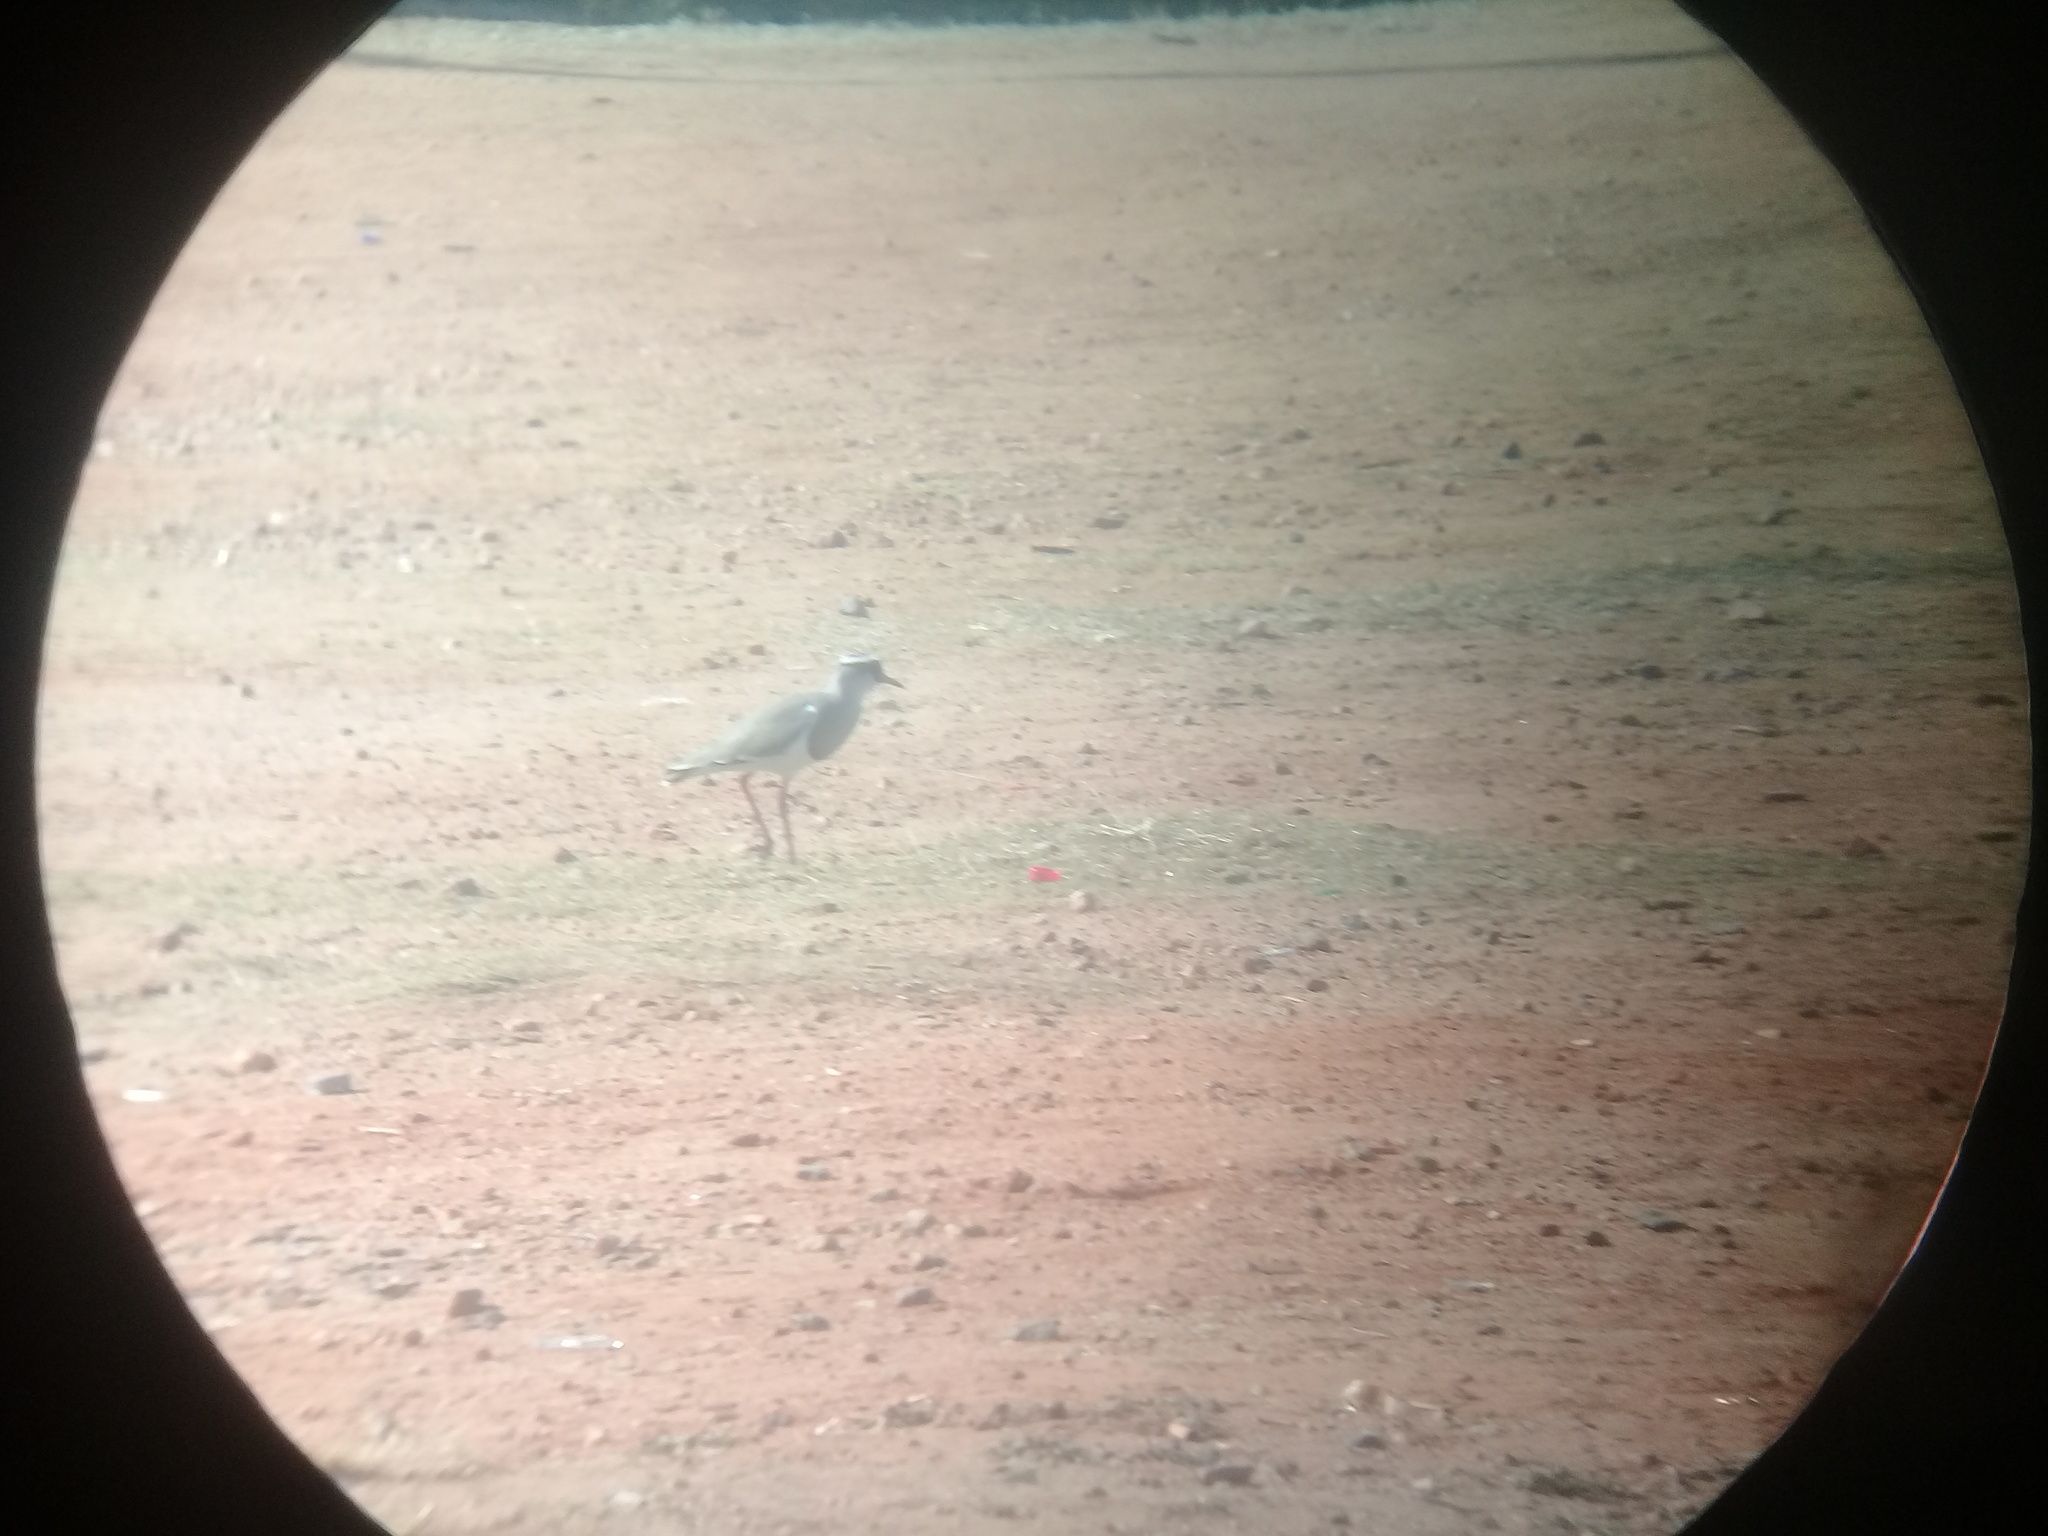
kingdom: Animalia
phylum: Chordata
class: Aves
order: Charadriiformes
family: Charadriidae
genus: Vanellus
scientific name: Vanellus coronatus
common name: Crowned lapwing
